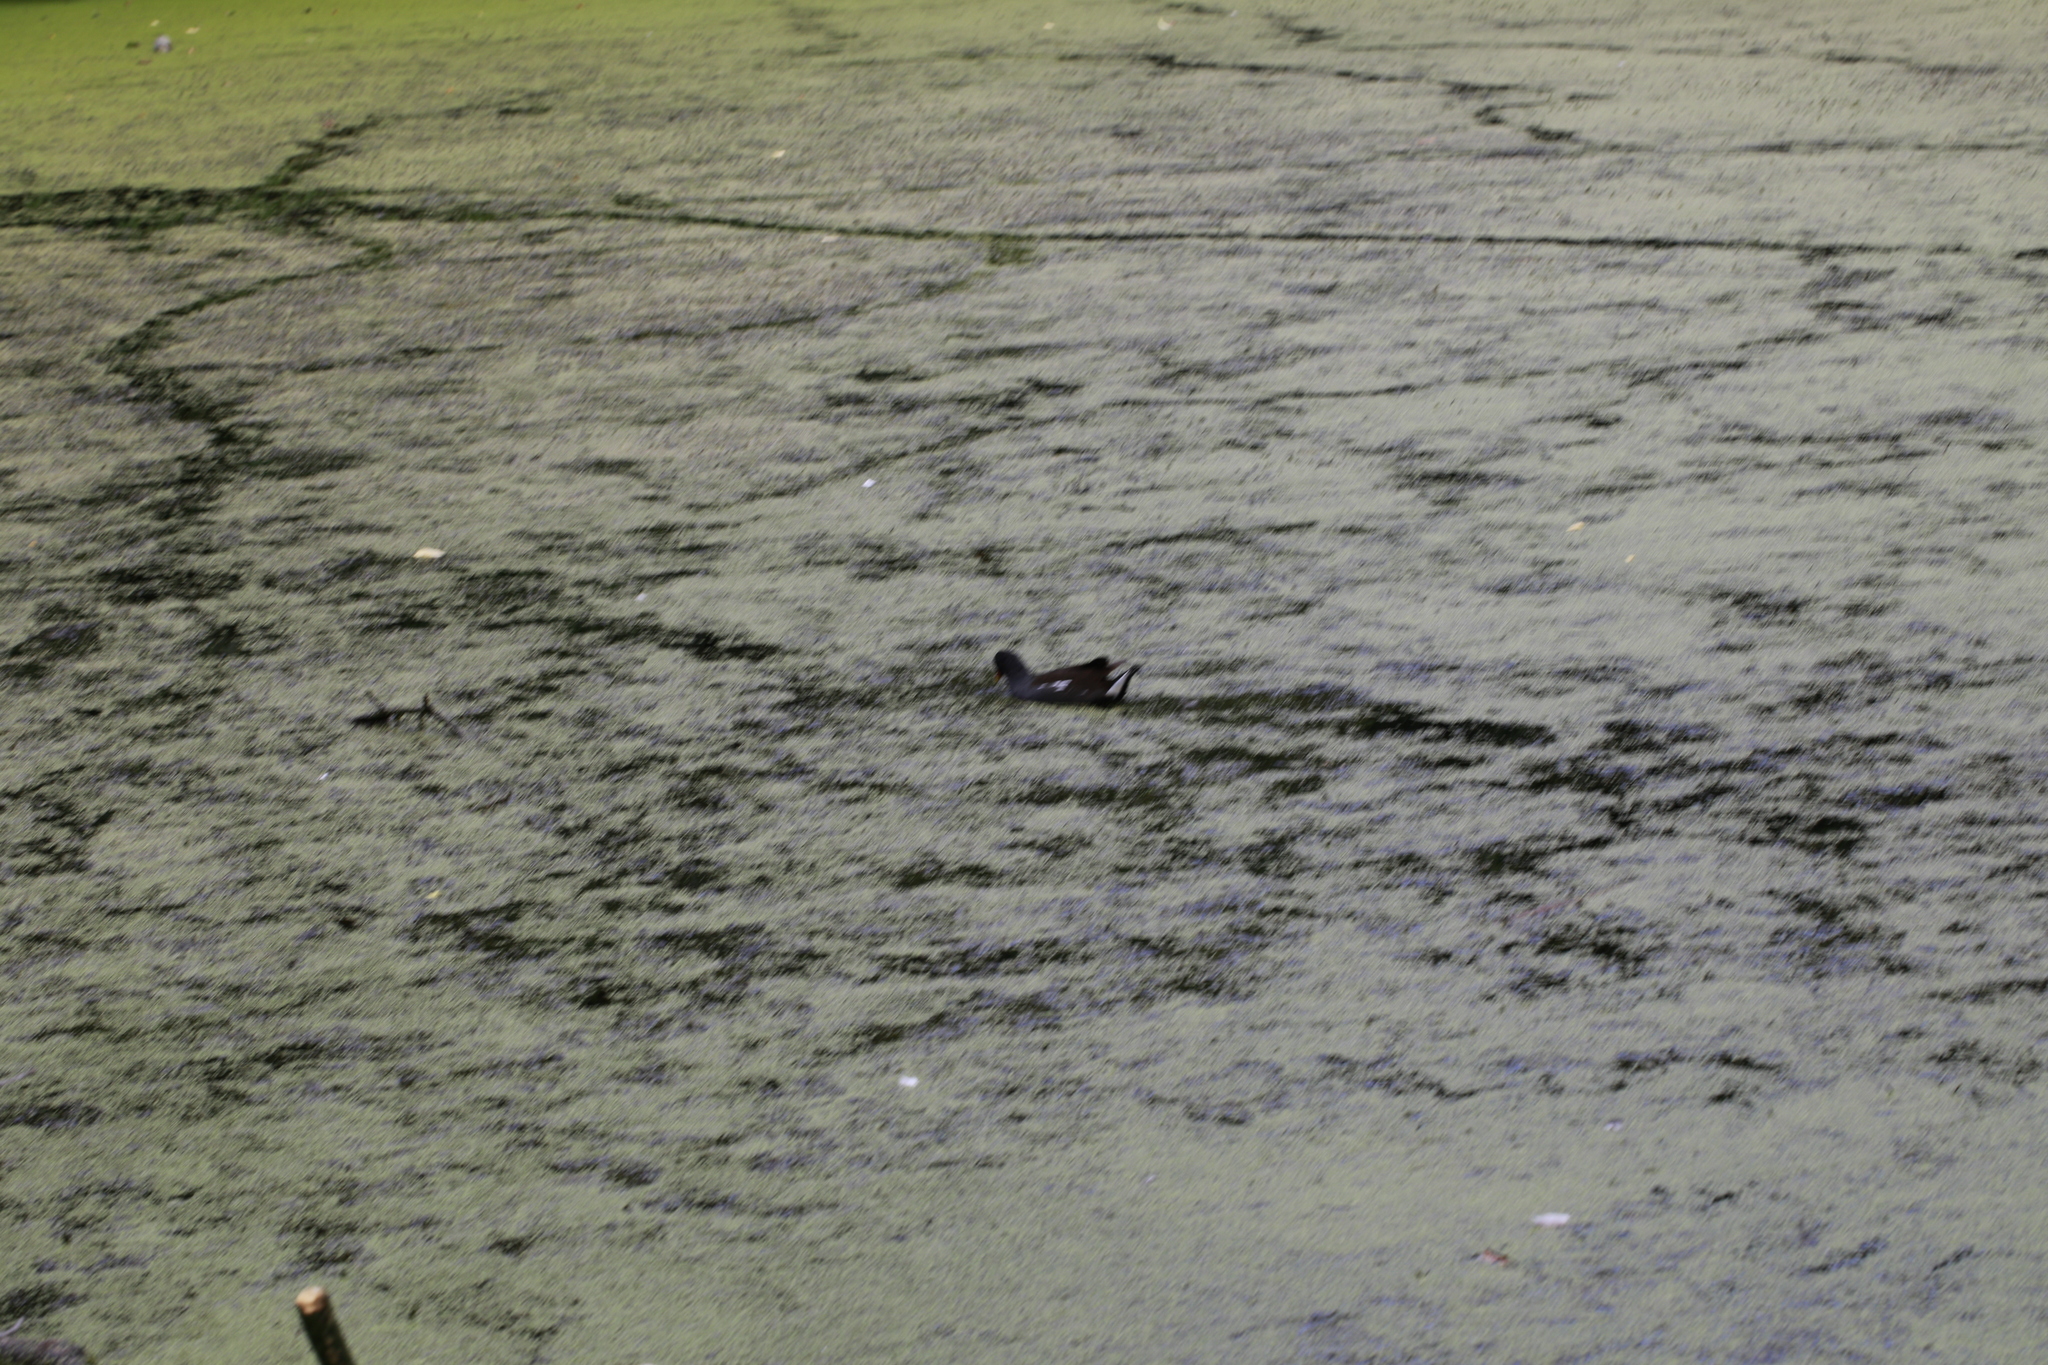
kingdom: Animalia
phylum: Chordata
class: Aves
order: Gruiformes
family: Rallidae
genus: Gallinula
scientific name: Gallinula chloropus
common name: Common moorhen
